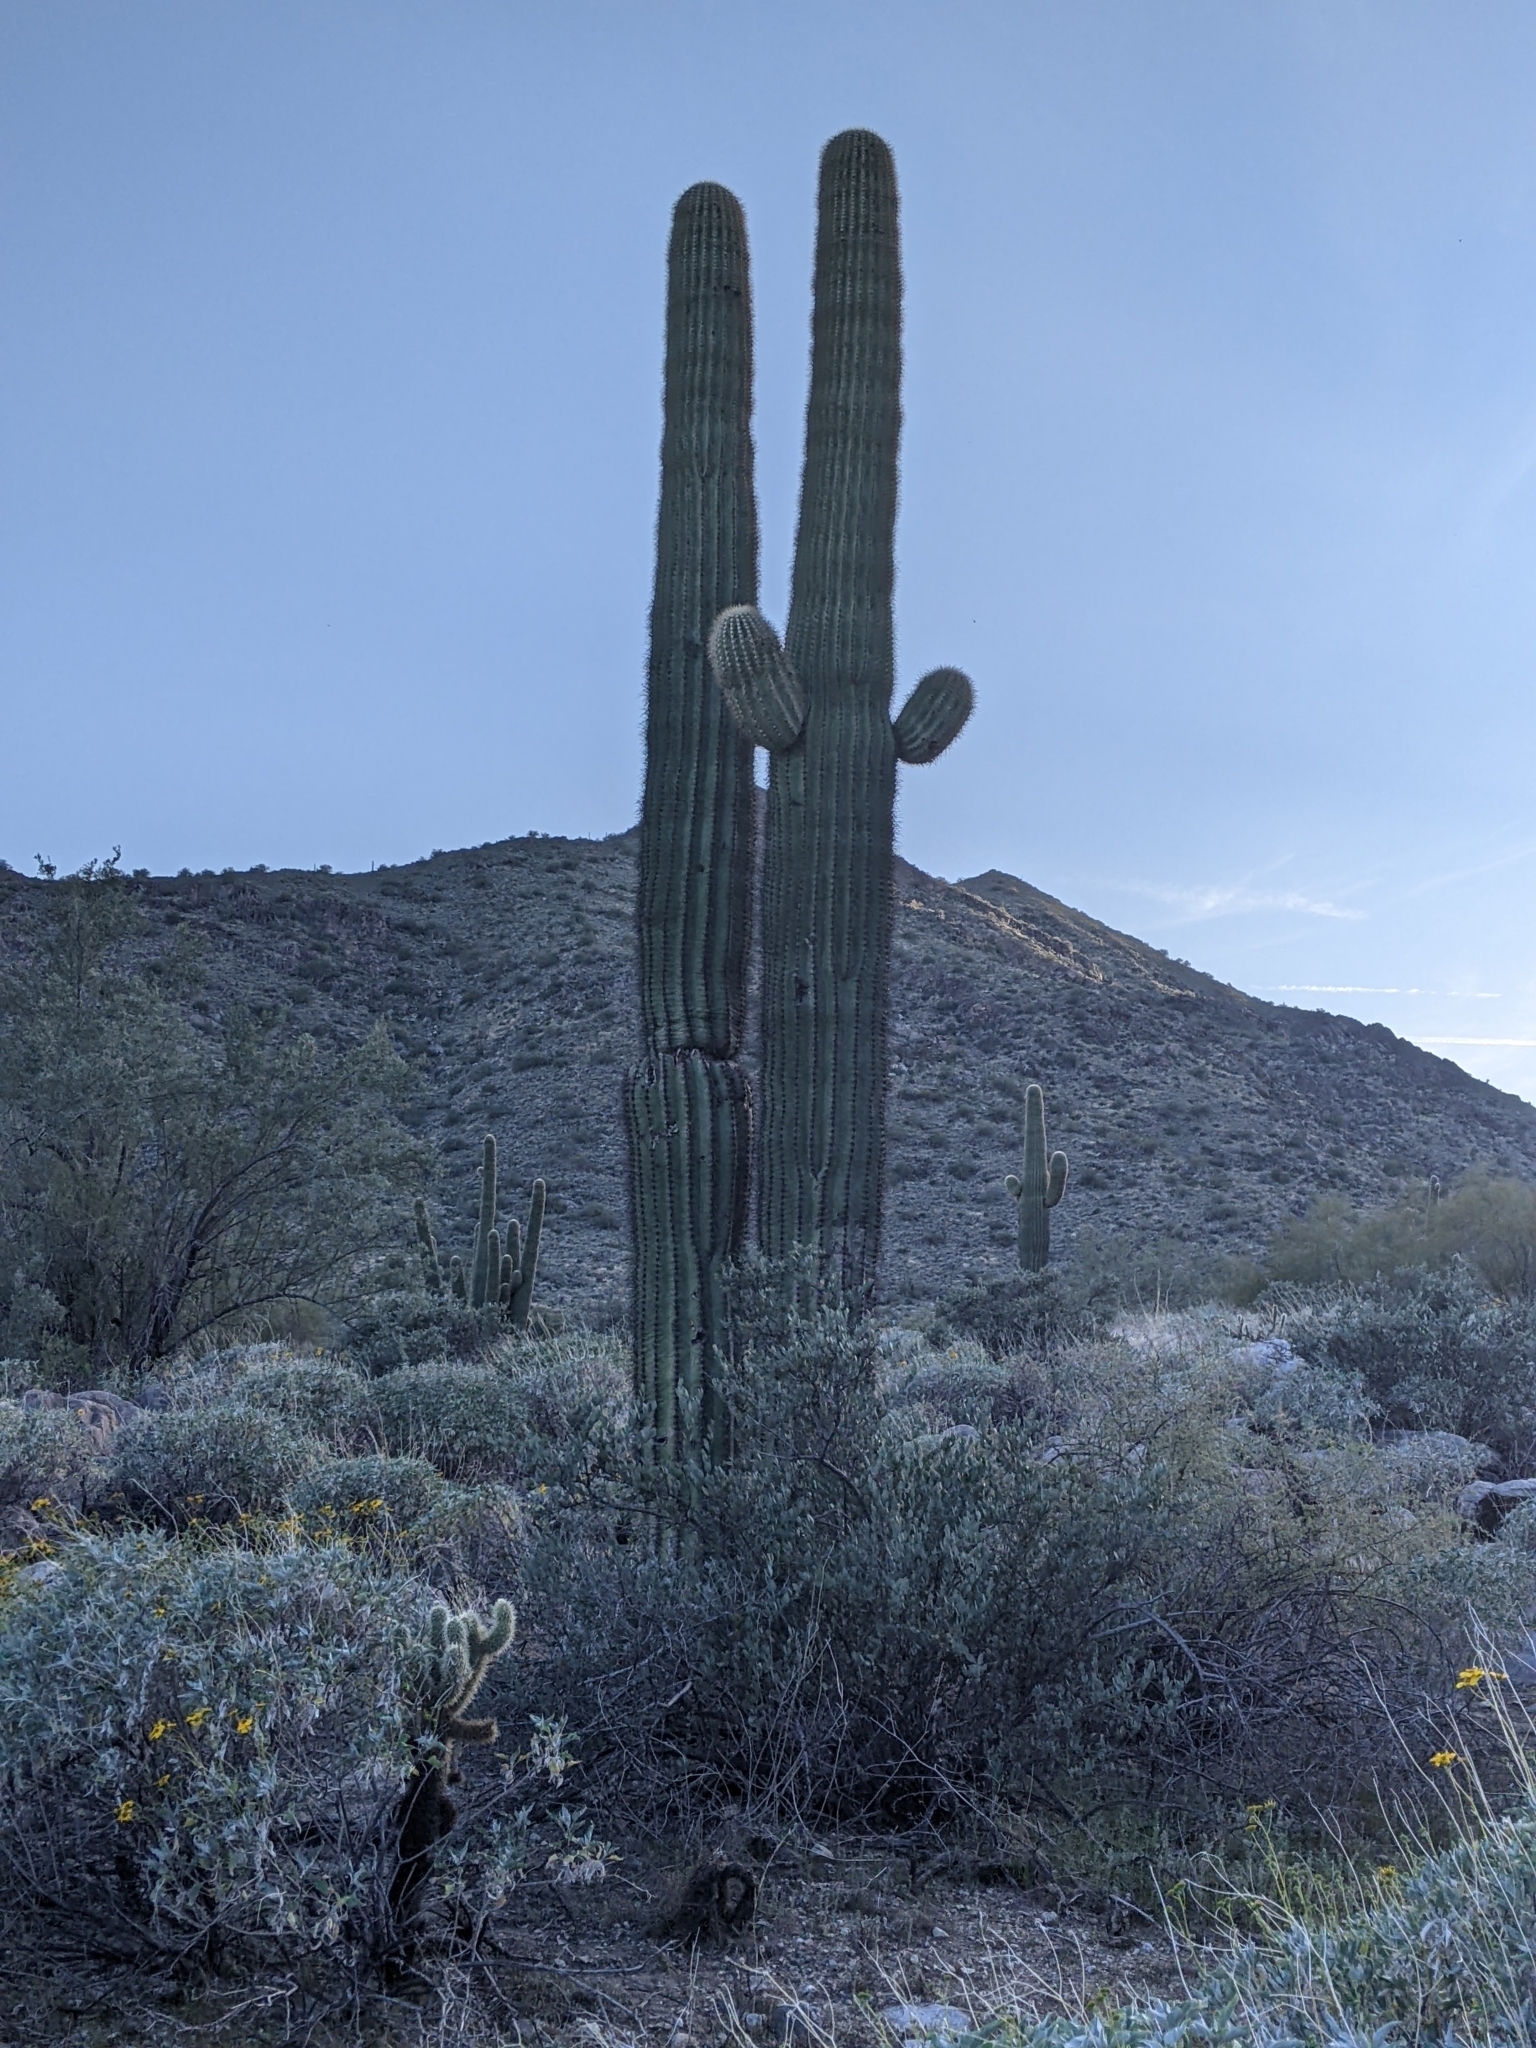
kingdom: Plantae
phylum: Tracheophyta
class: Magnoliopsida
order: Caryophyllales
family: Cactaceae
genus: Carnegiea
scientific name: Carnegiea gigantea
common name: Saguaro
